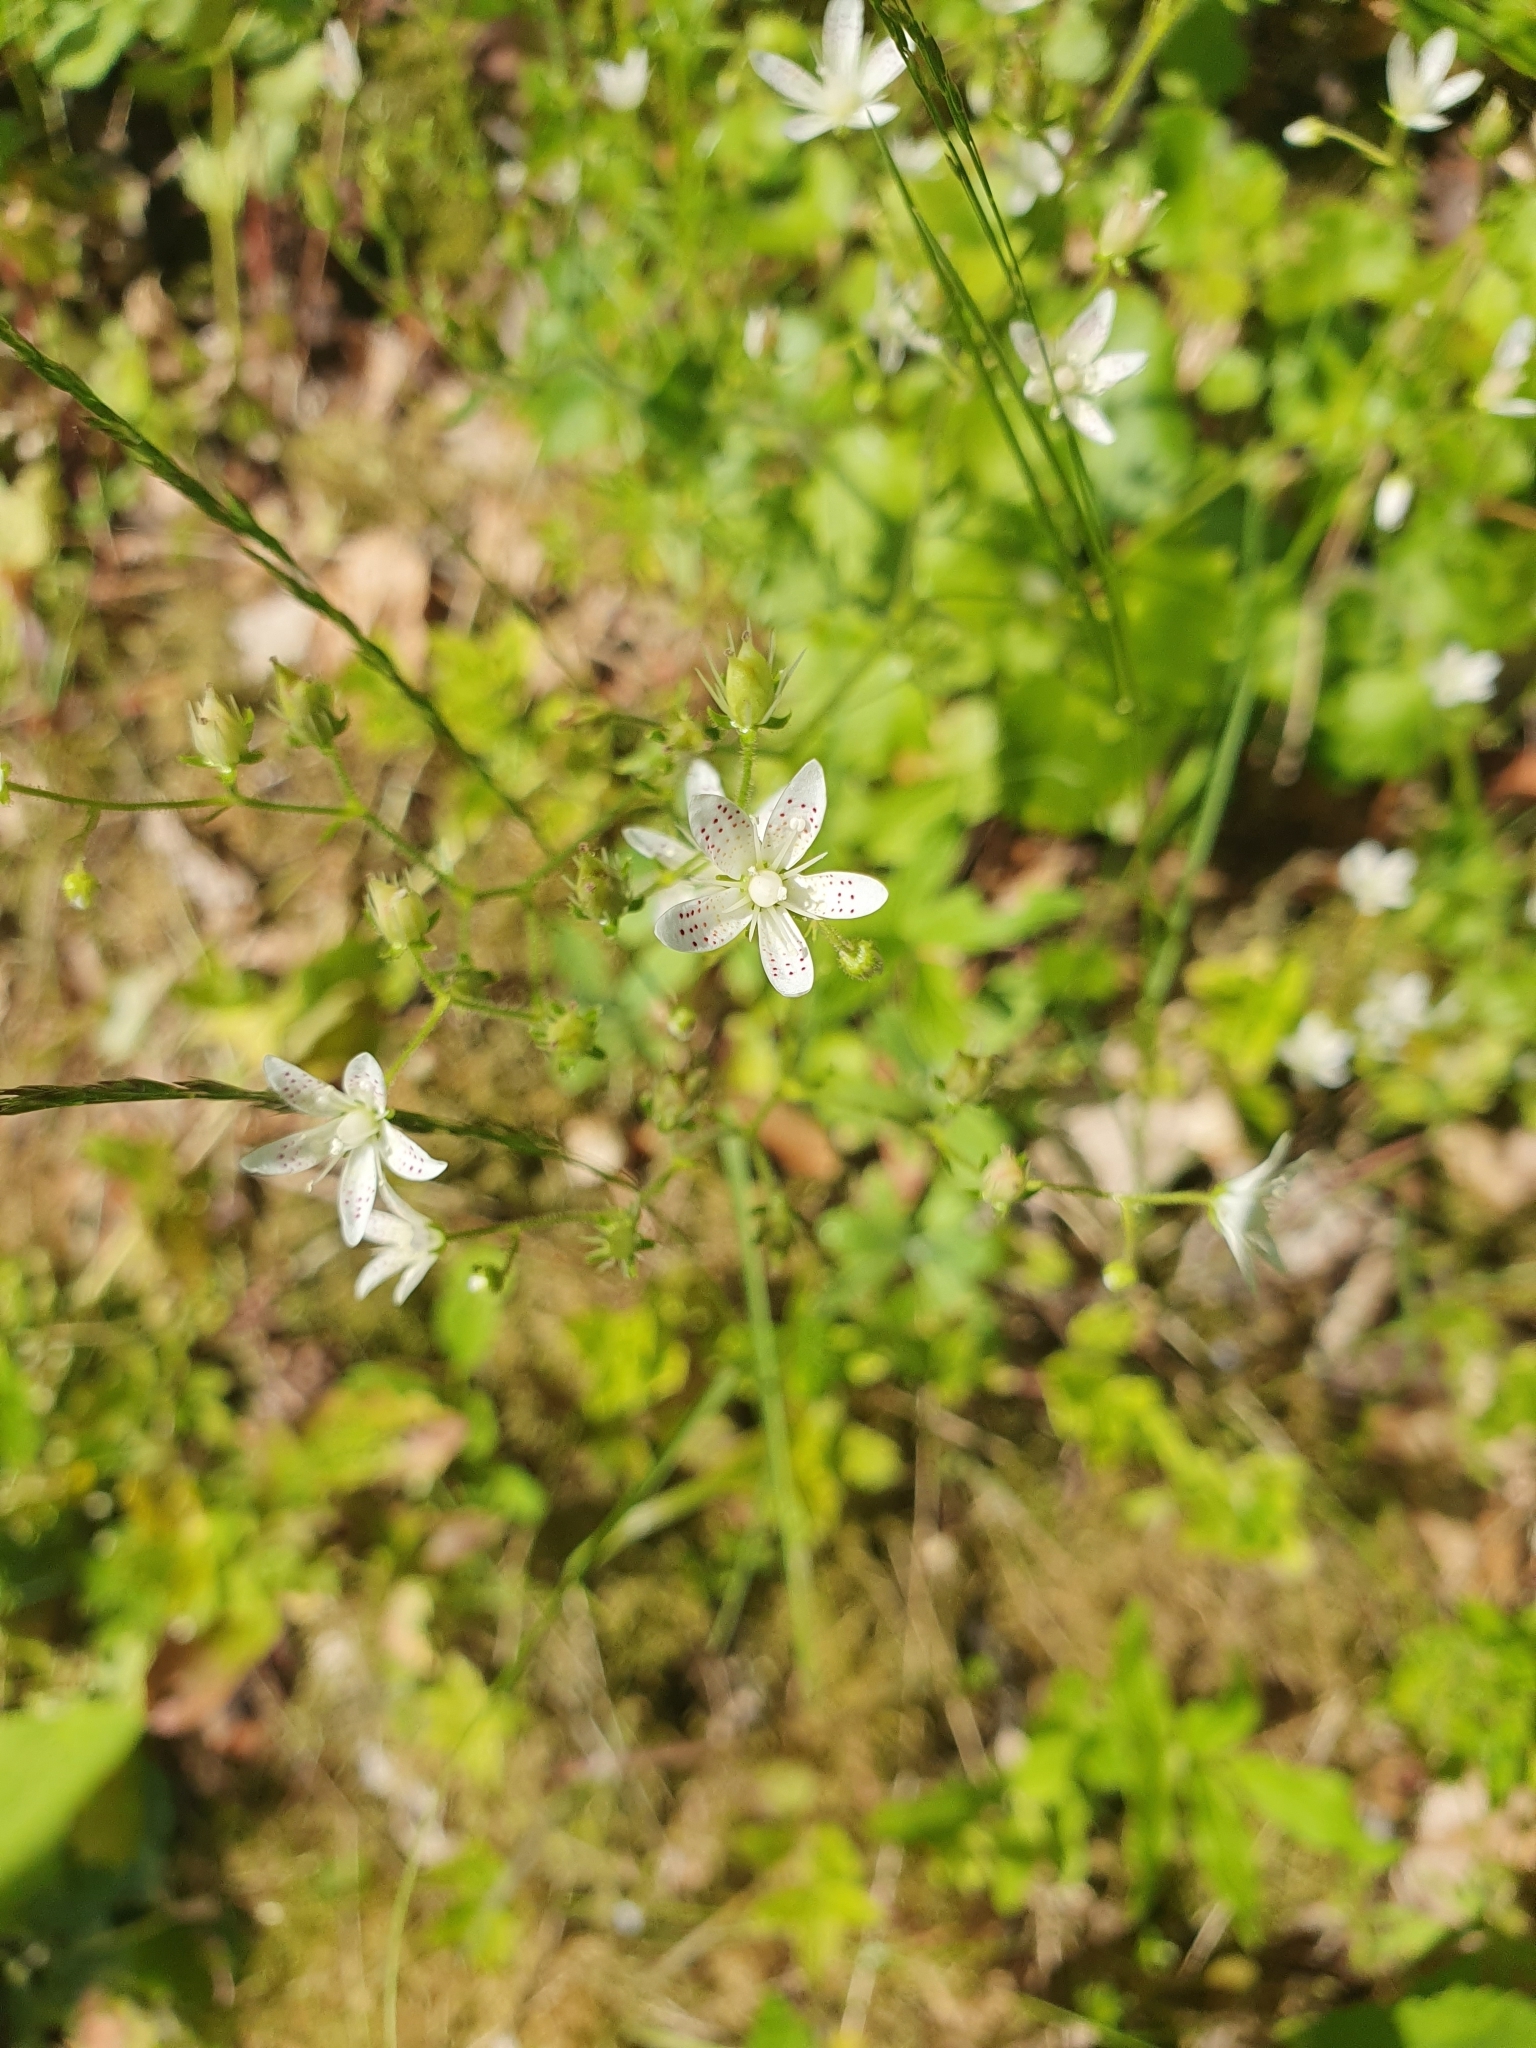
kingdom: Plantae
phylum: Tracheophyta
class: Magnoliopsida
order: Saxifragales
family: Saxifragaceae
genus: Saxifraga
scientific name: Saxifraga rotundifolia
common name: Round-leaved saxifrage
